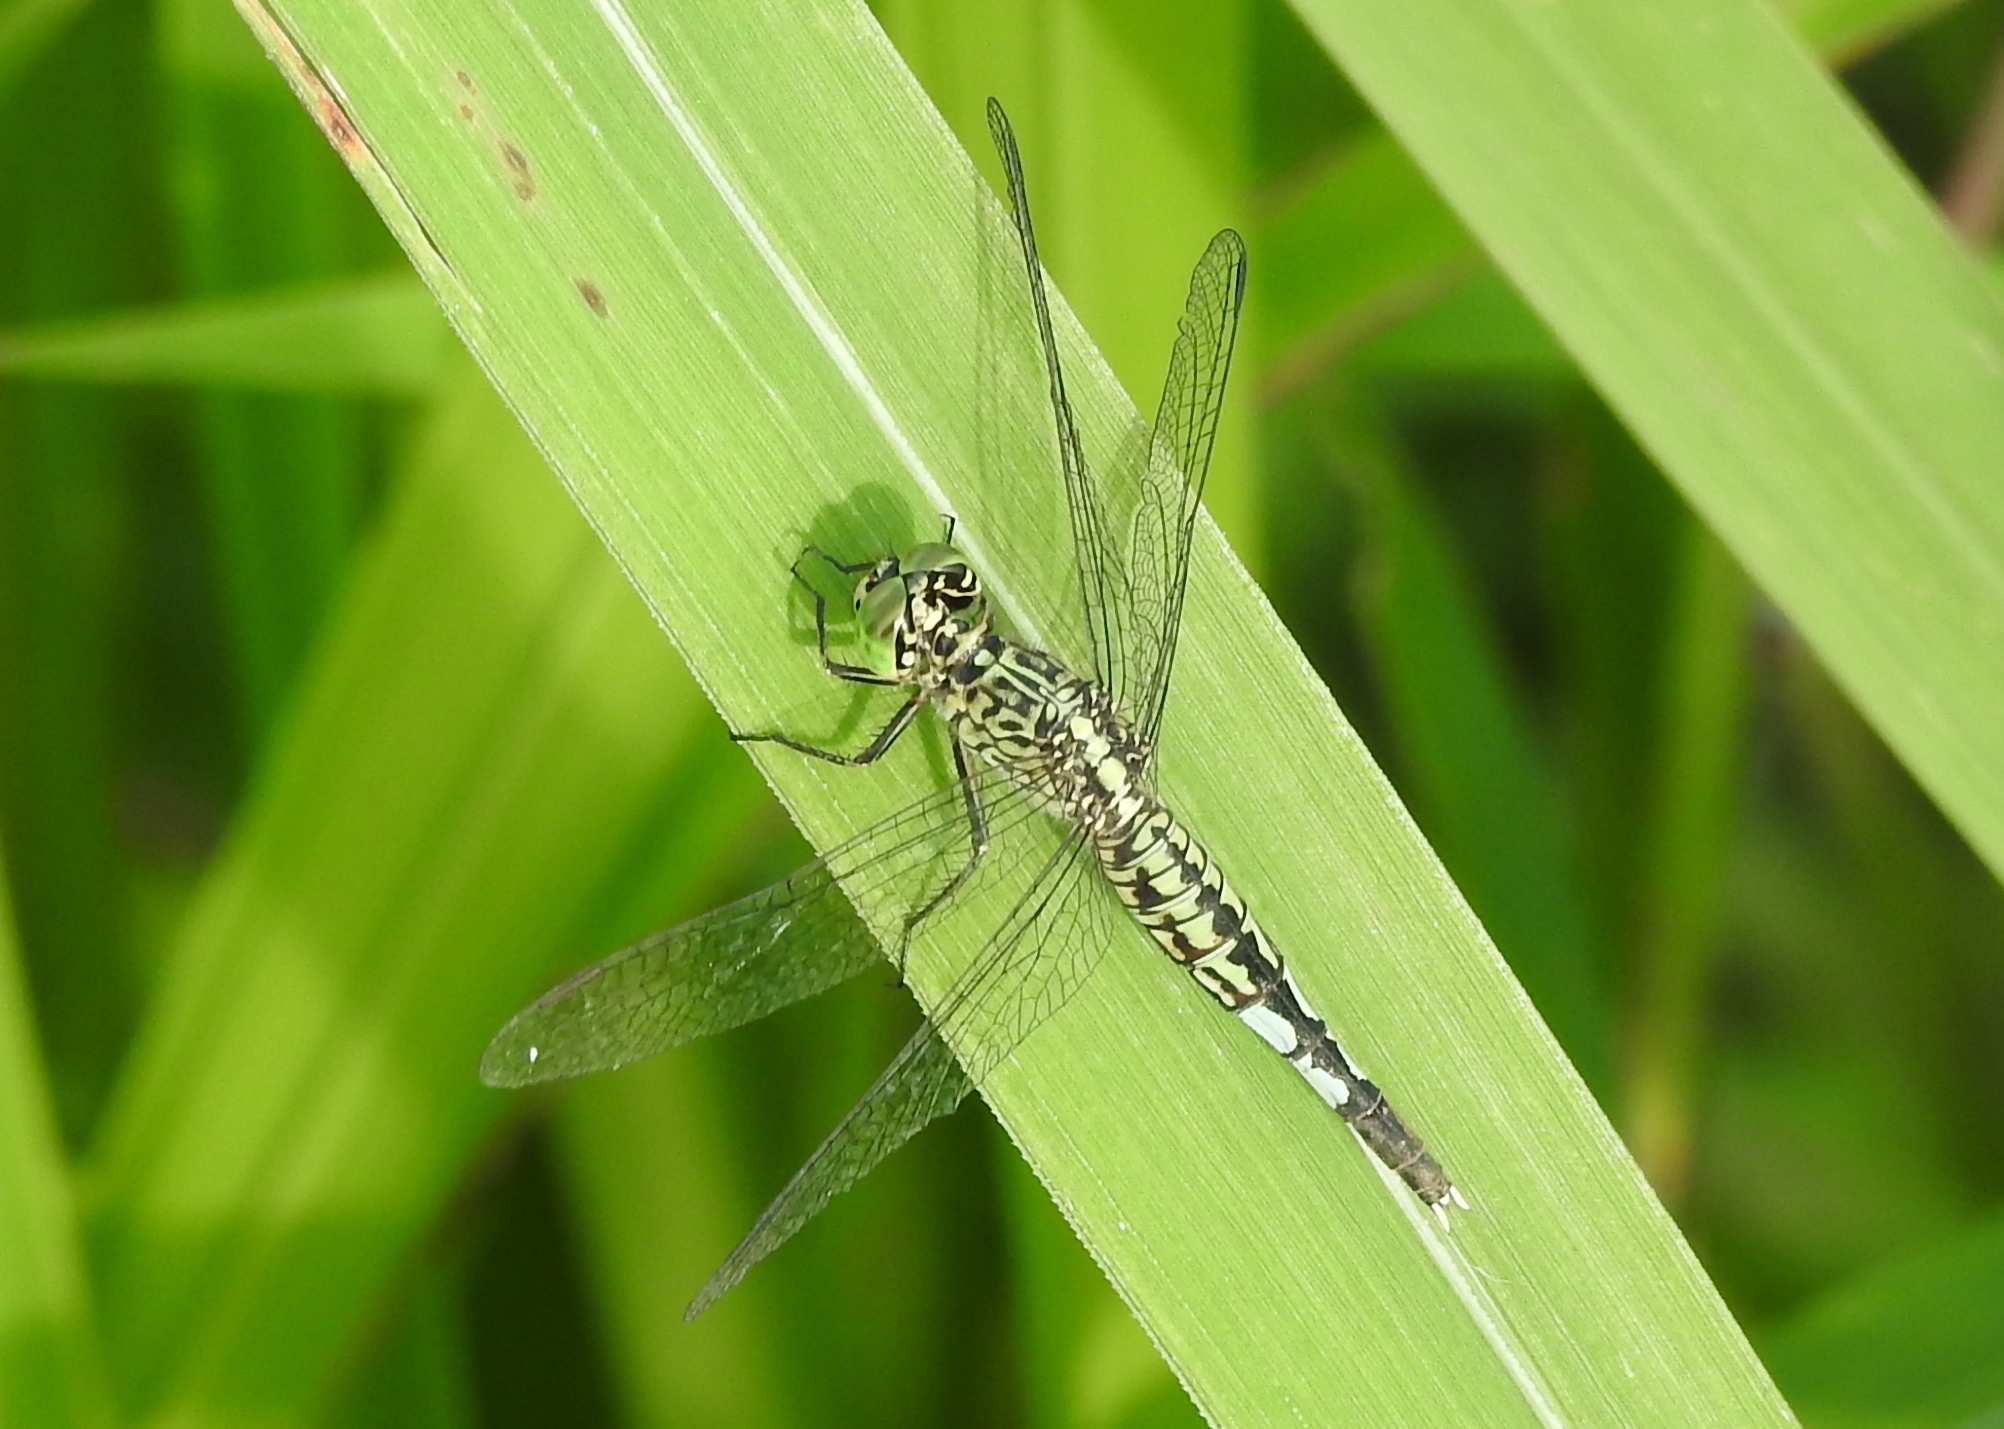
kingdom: Animalia
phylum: Arthropoda
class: Insecta
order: Odonata
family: Libellulidae
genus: Acisoma
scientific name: Acisoma panorpoides
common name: Asian pintail
